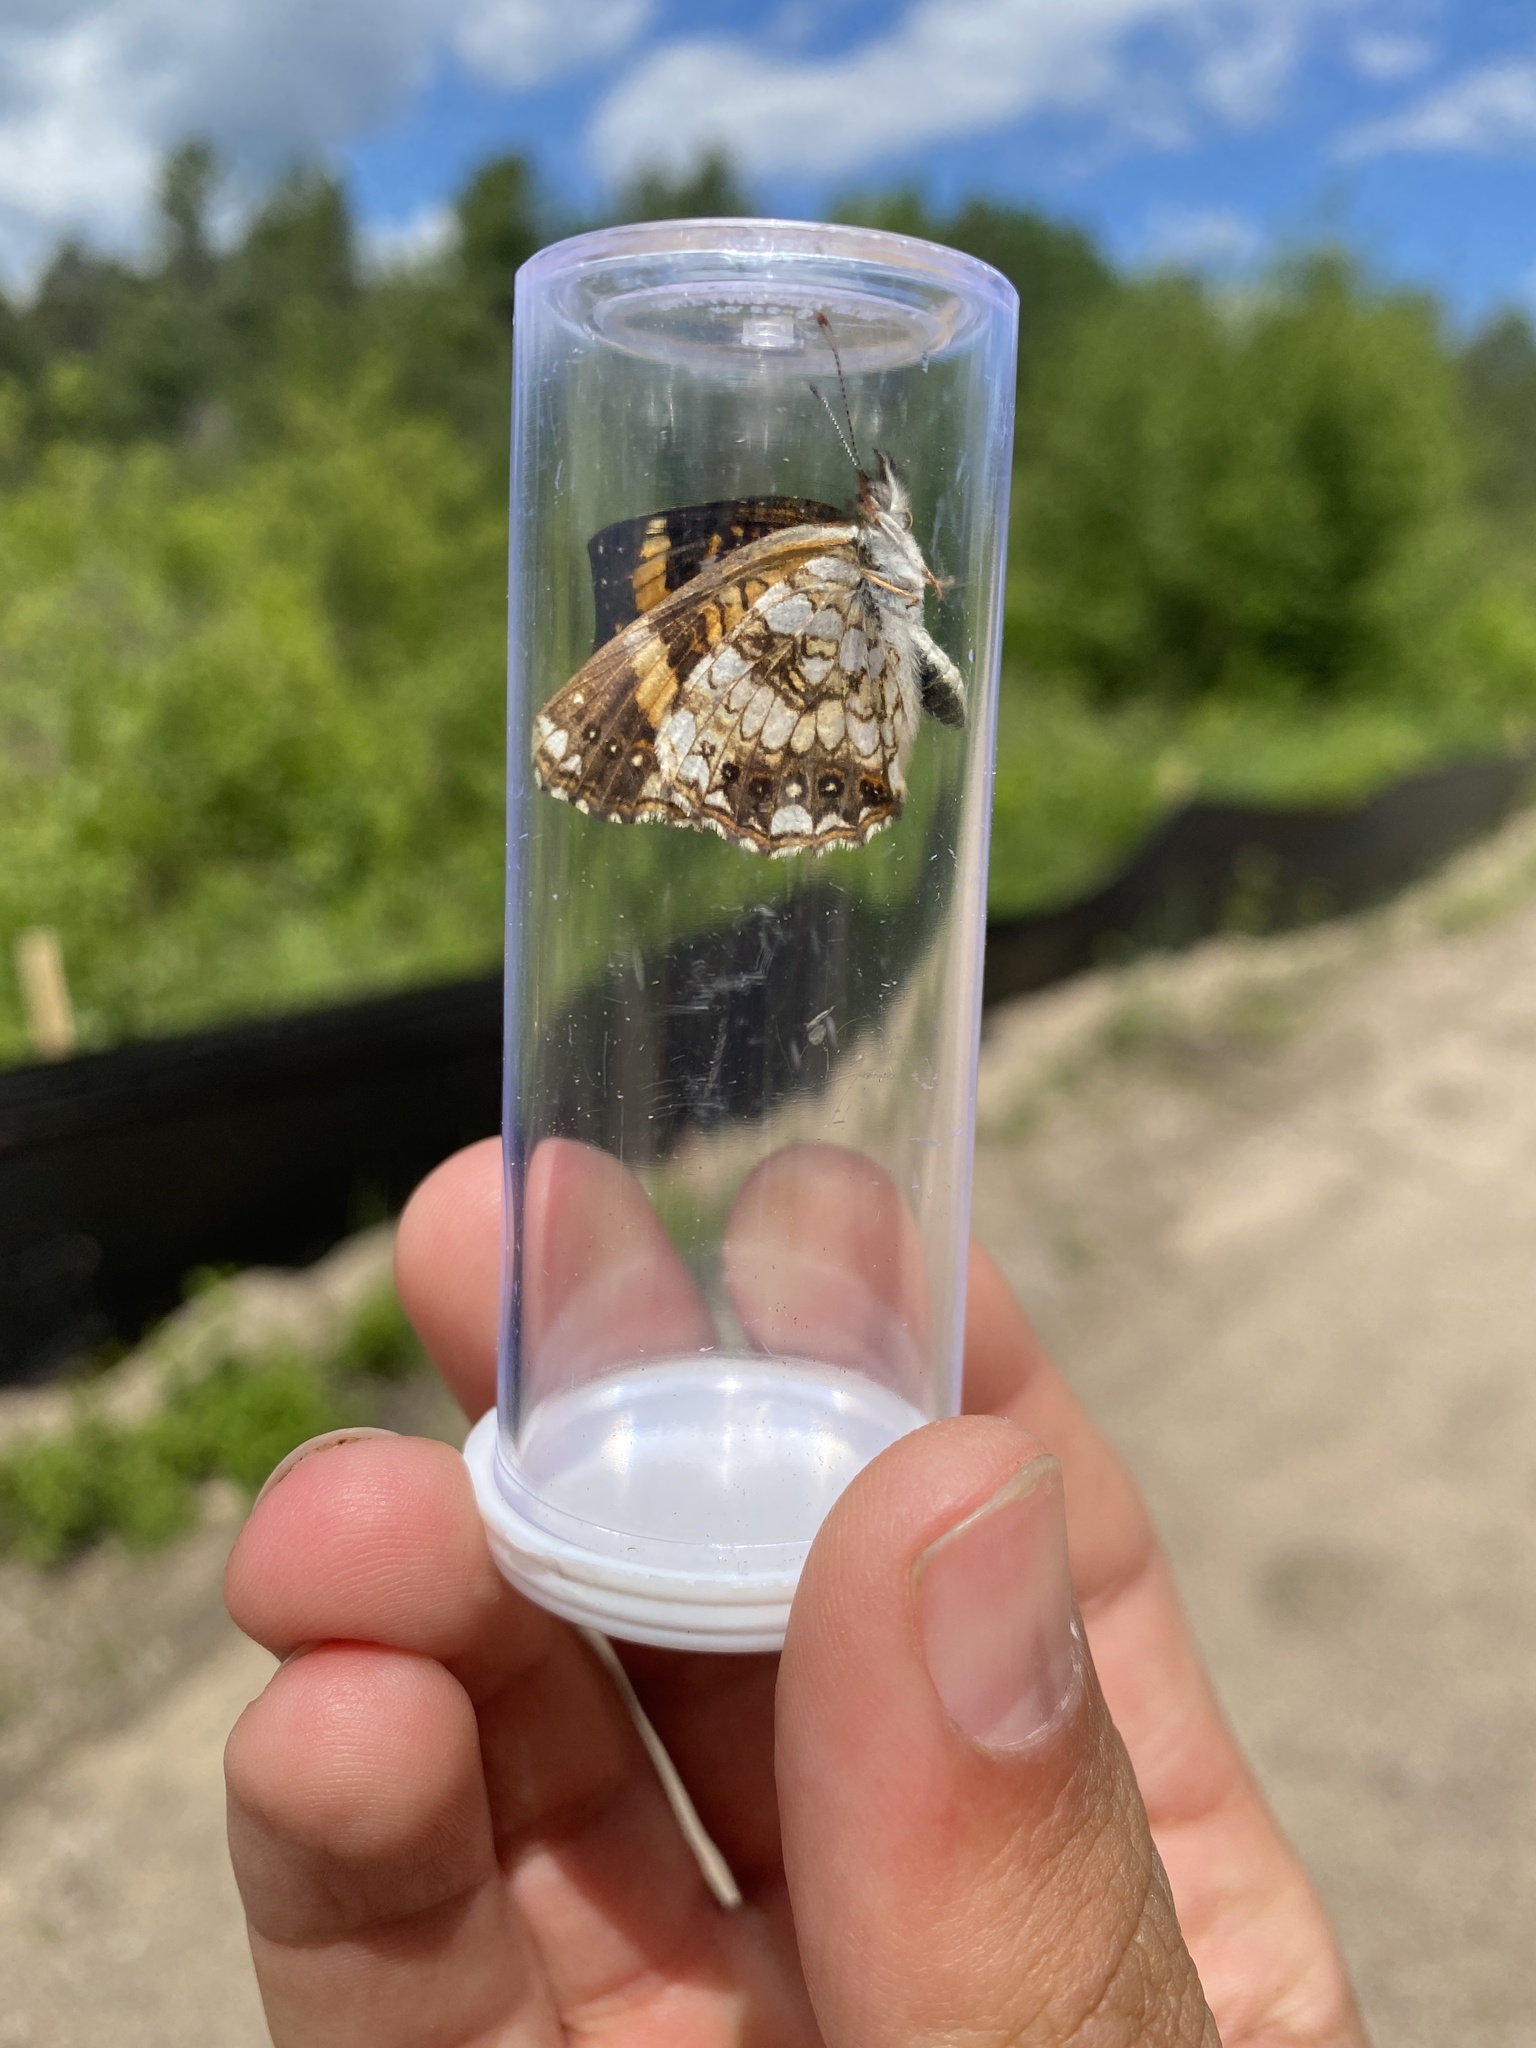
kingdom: Animalia
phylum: Arthropoda
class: Insecta
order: Lepidoptera
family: Nymphalidae
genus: Chlosyne
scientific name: Chlosyne nycteis
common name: Silvery checkerspot
